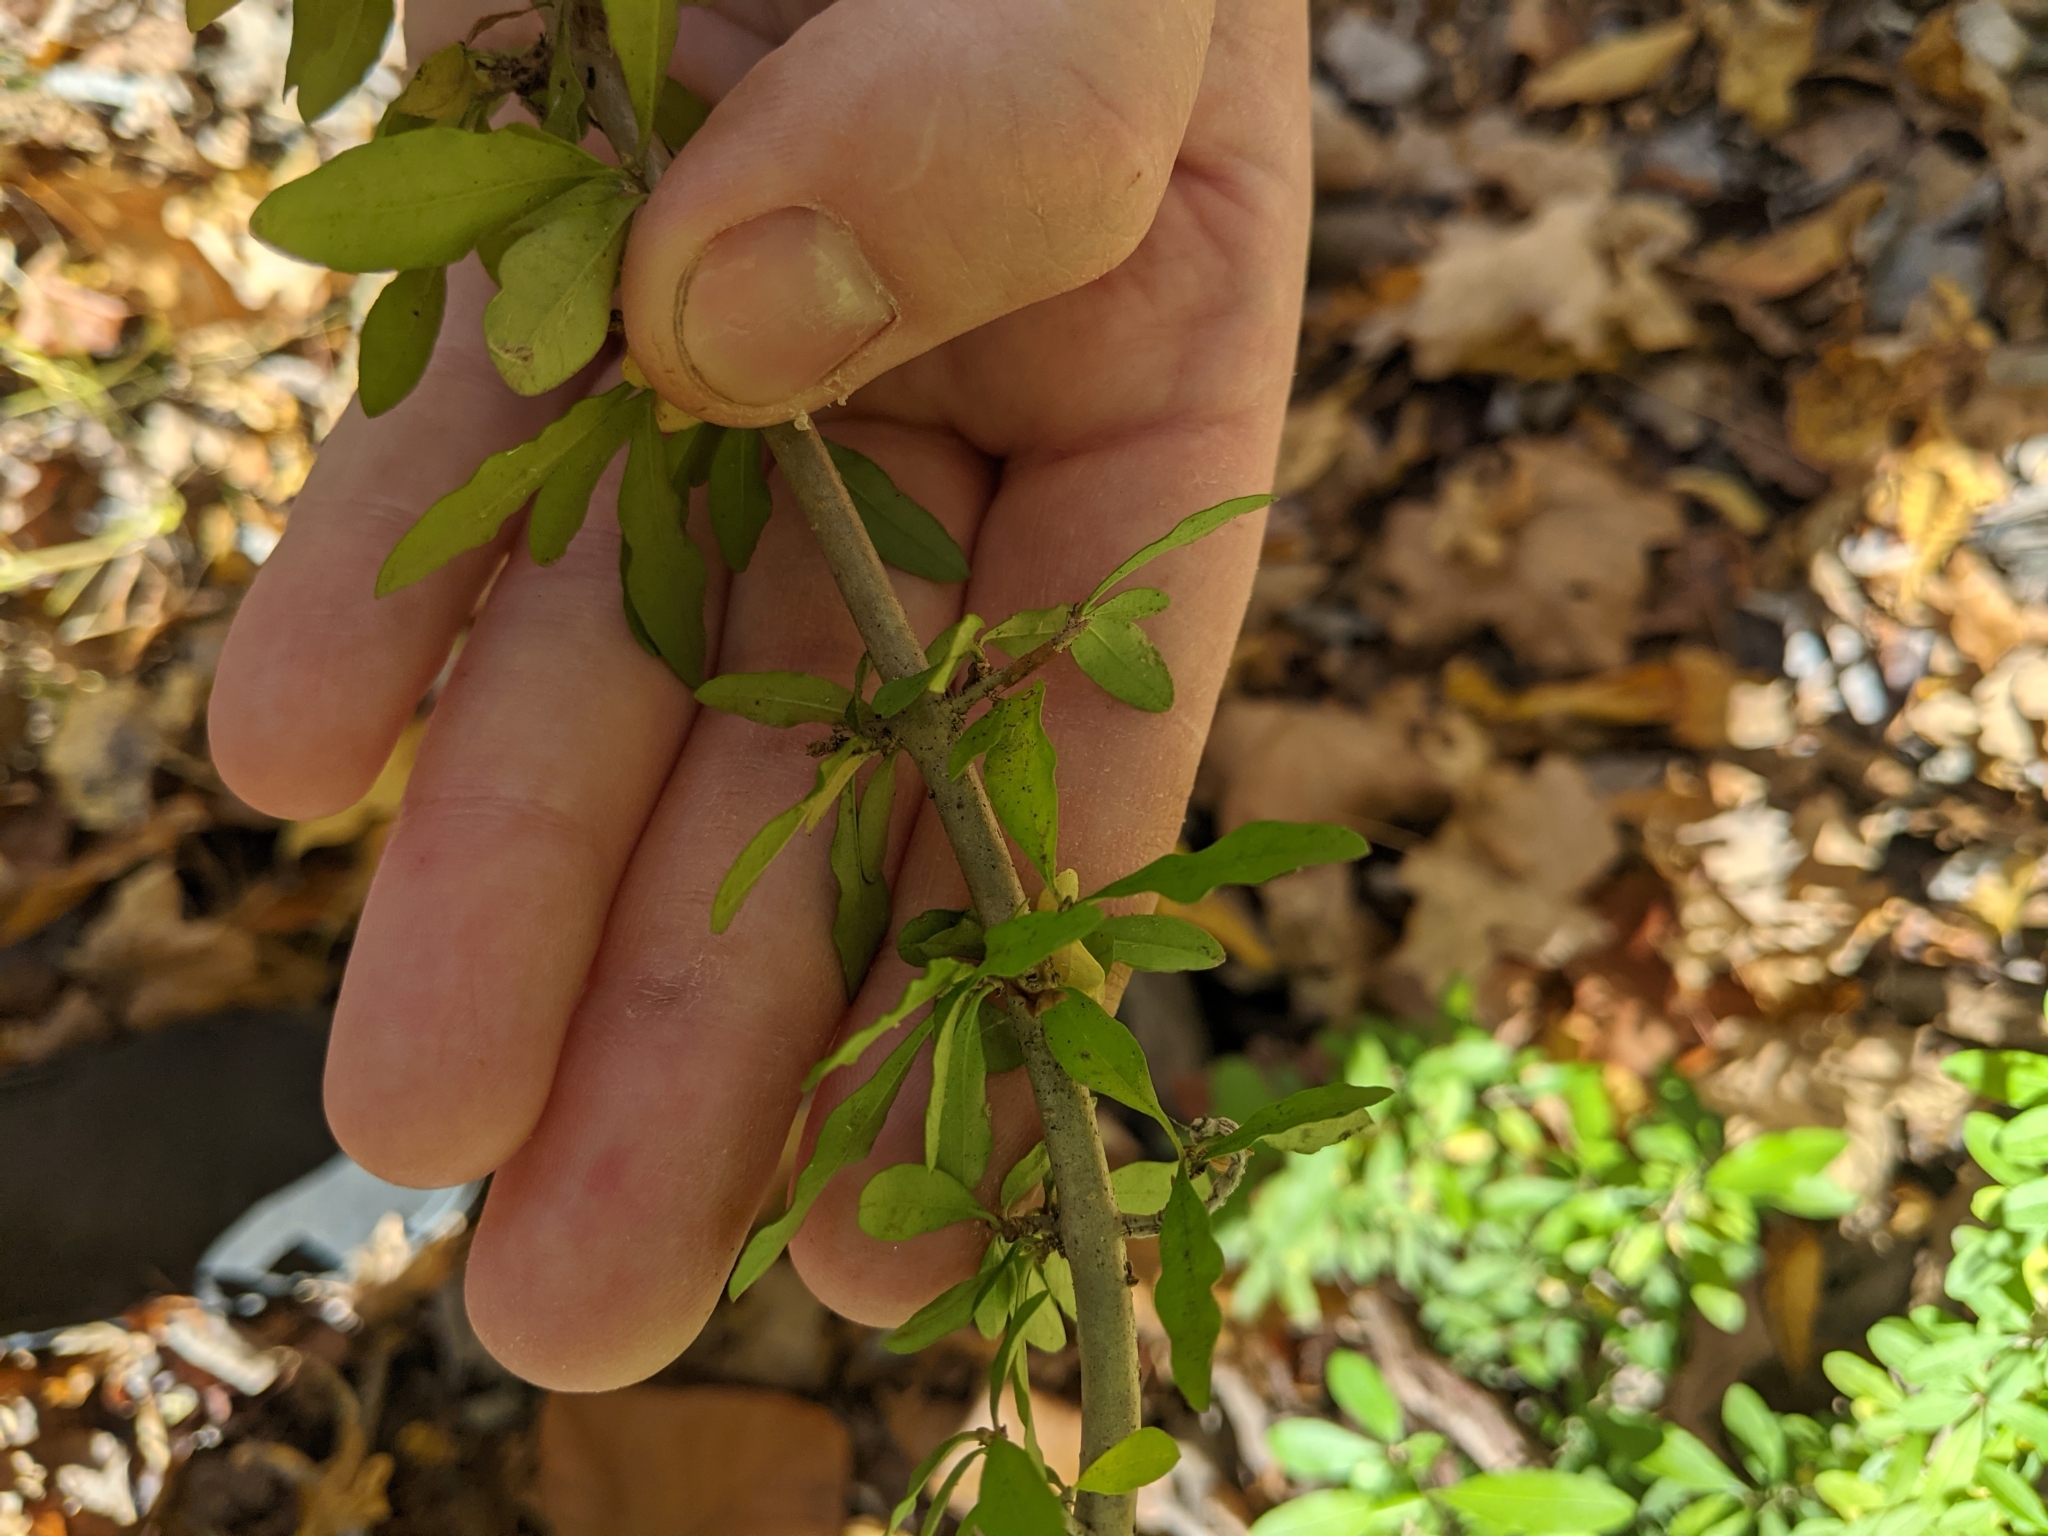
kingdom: Plantae
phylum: Tracheophyta
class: Magnoliopsida
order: Lamiales
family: Oleaceae
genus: Ligustrum
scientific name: Ligustrum obtusifolium
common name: Border privet
